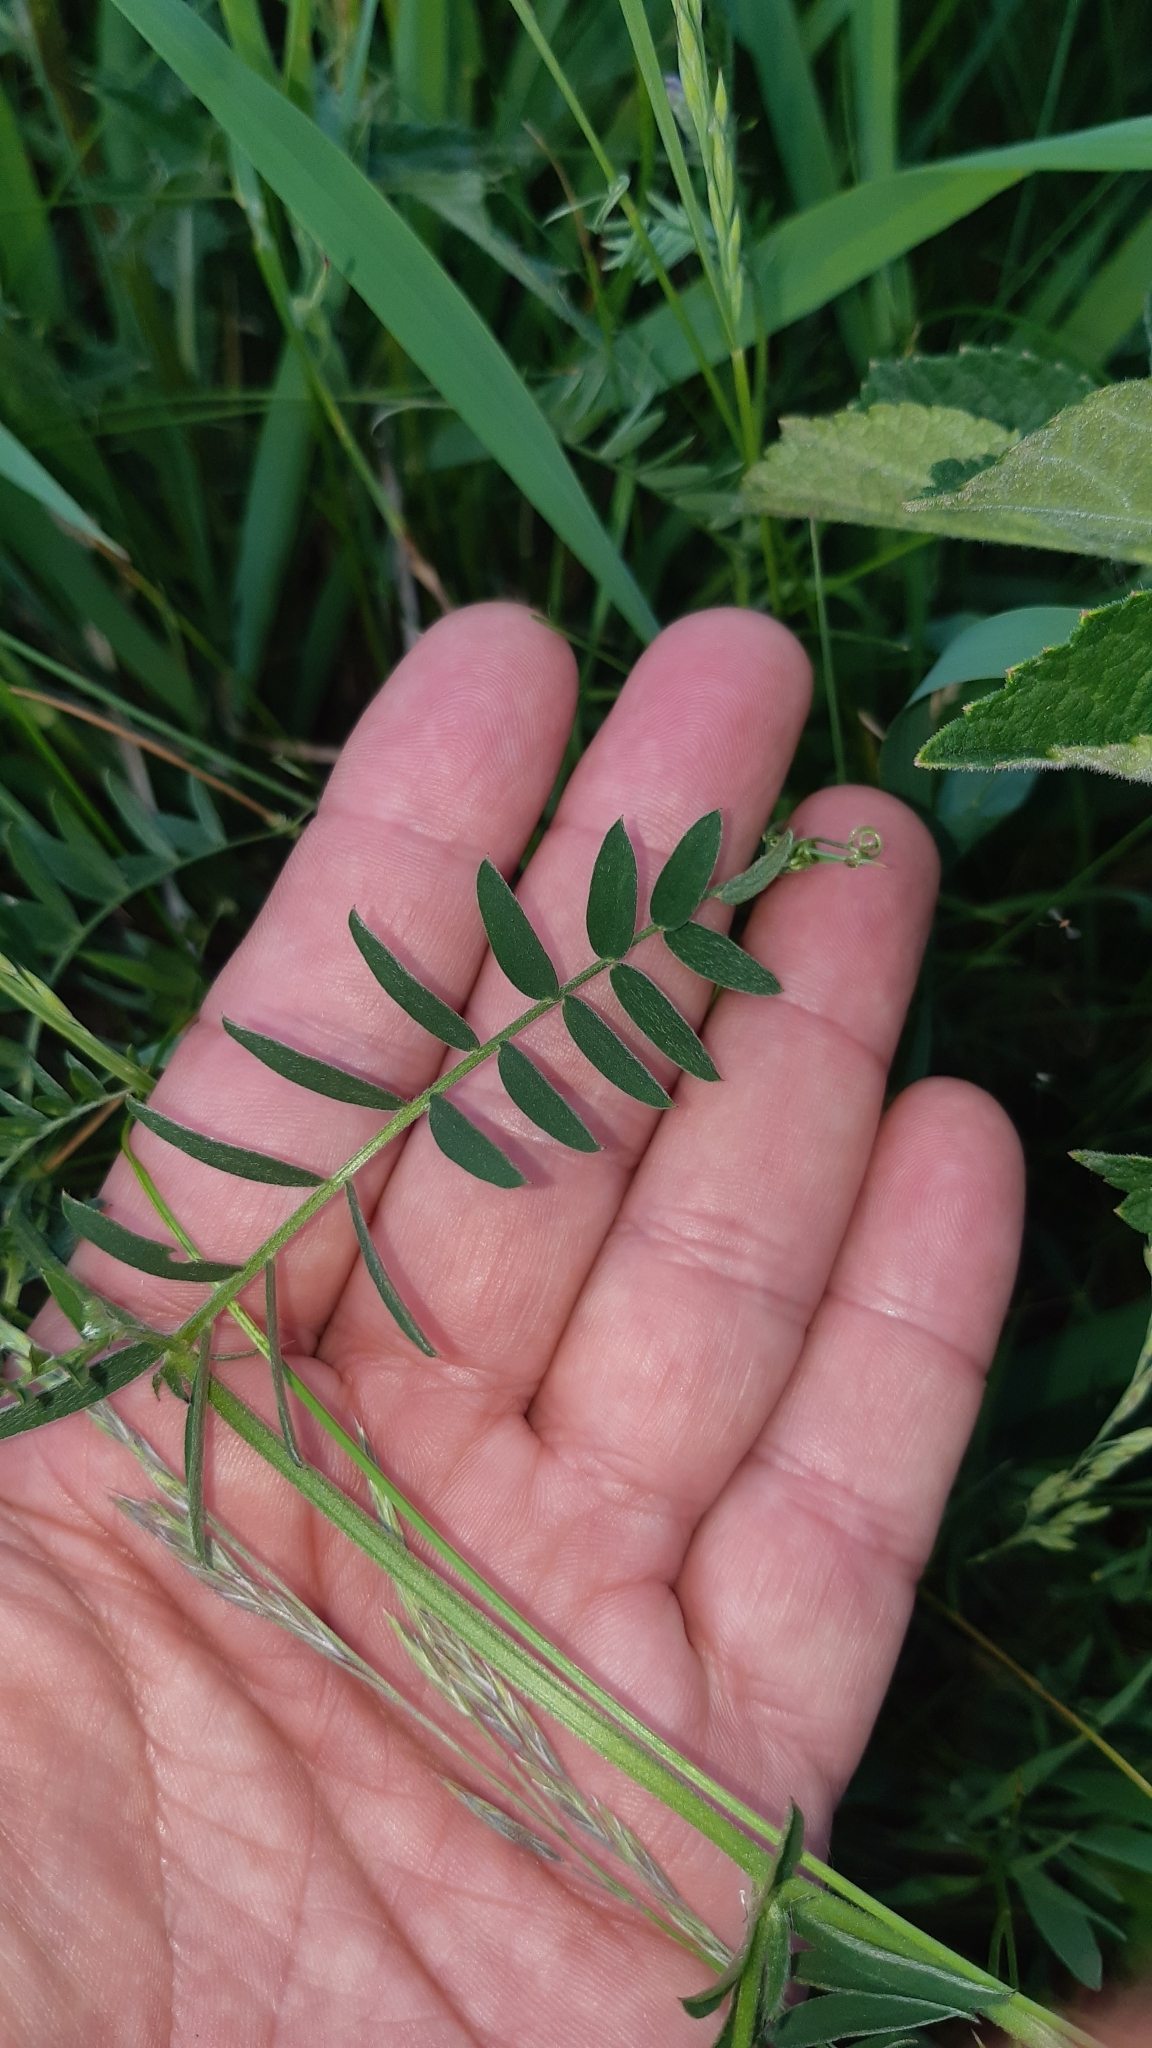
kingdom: Plantae
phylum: Tracheophyta
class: Magnoliopsida
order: Fabales
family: Fabaceae
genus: Vicia
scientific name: Vicia cracca
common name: Bird vetch
